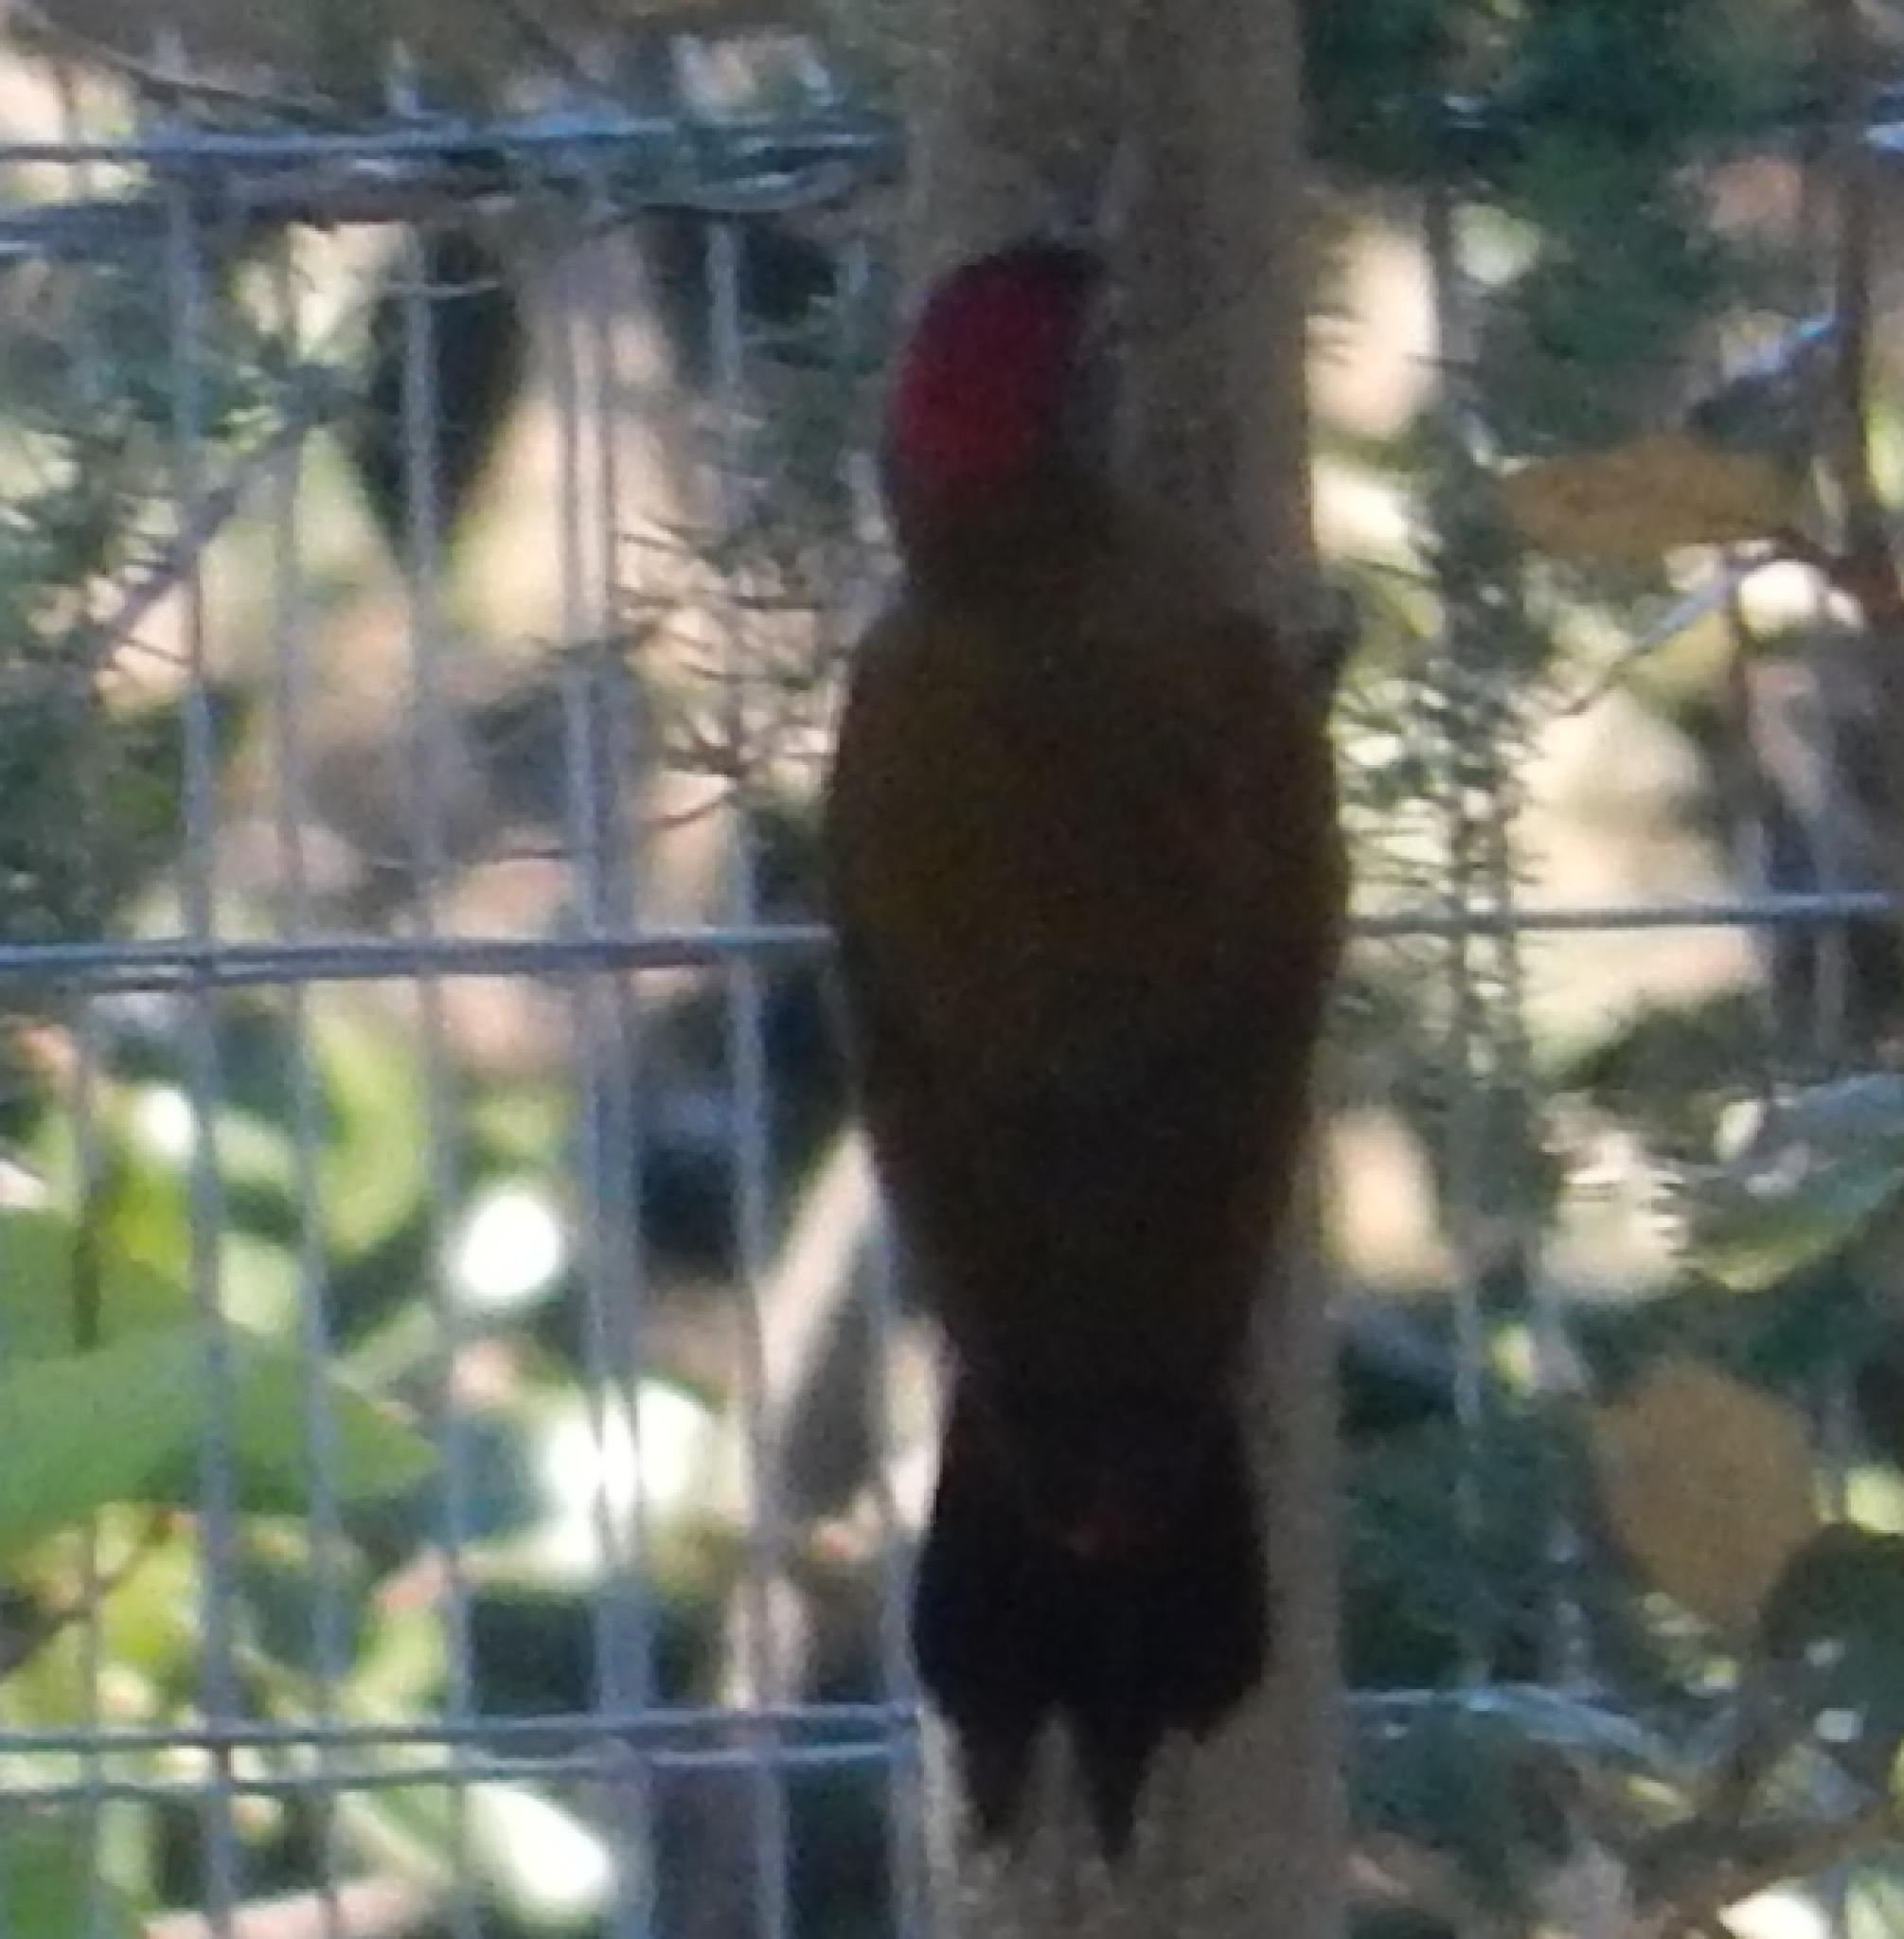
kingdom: Animalia
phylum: Chordata
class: Aves
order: Piciformes
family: Picidae
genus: Dendropicos
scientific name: Dendropicos griseocephalus
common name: Olive woodpecker
